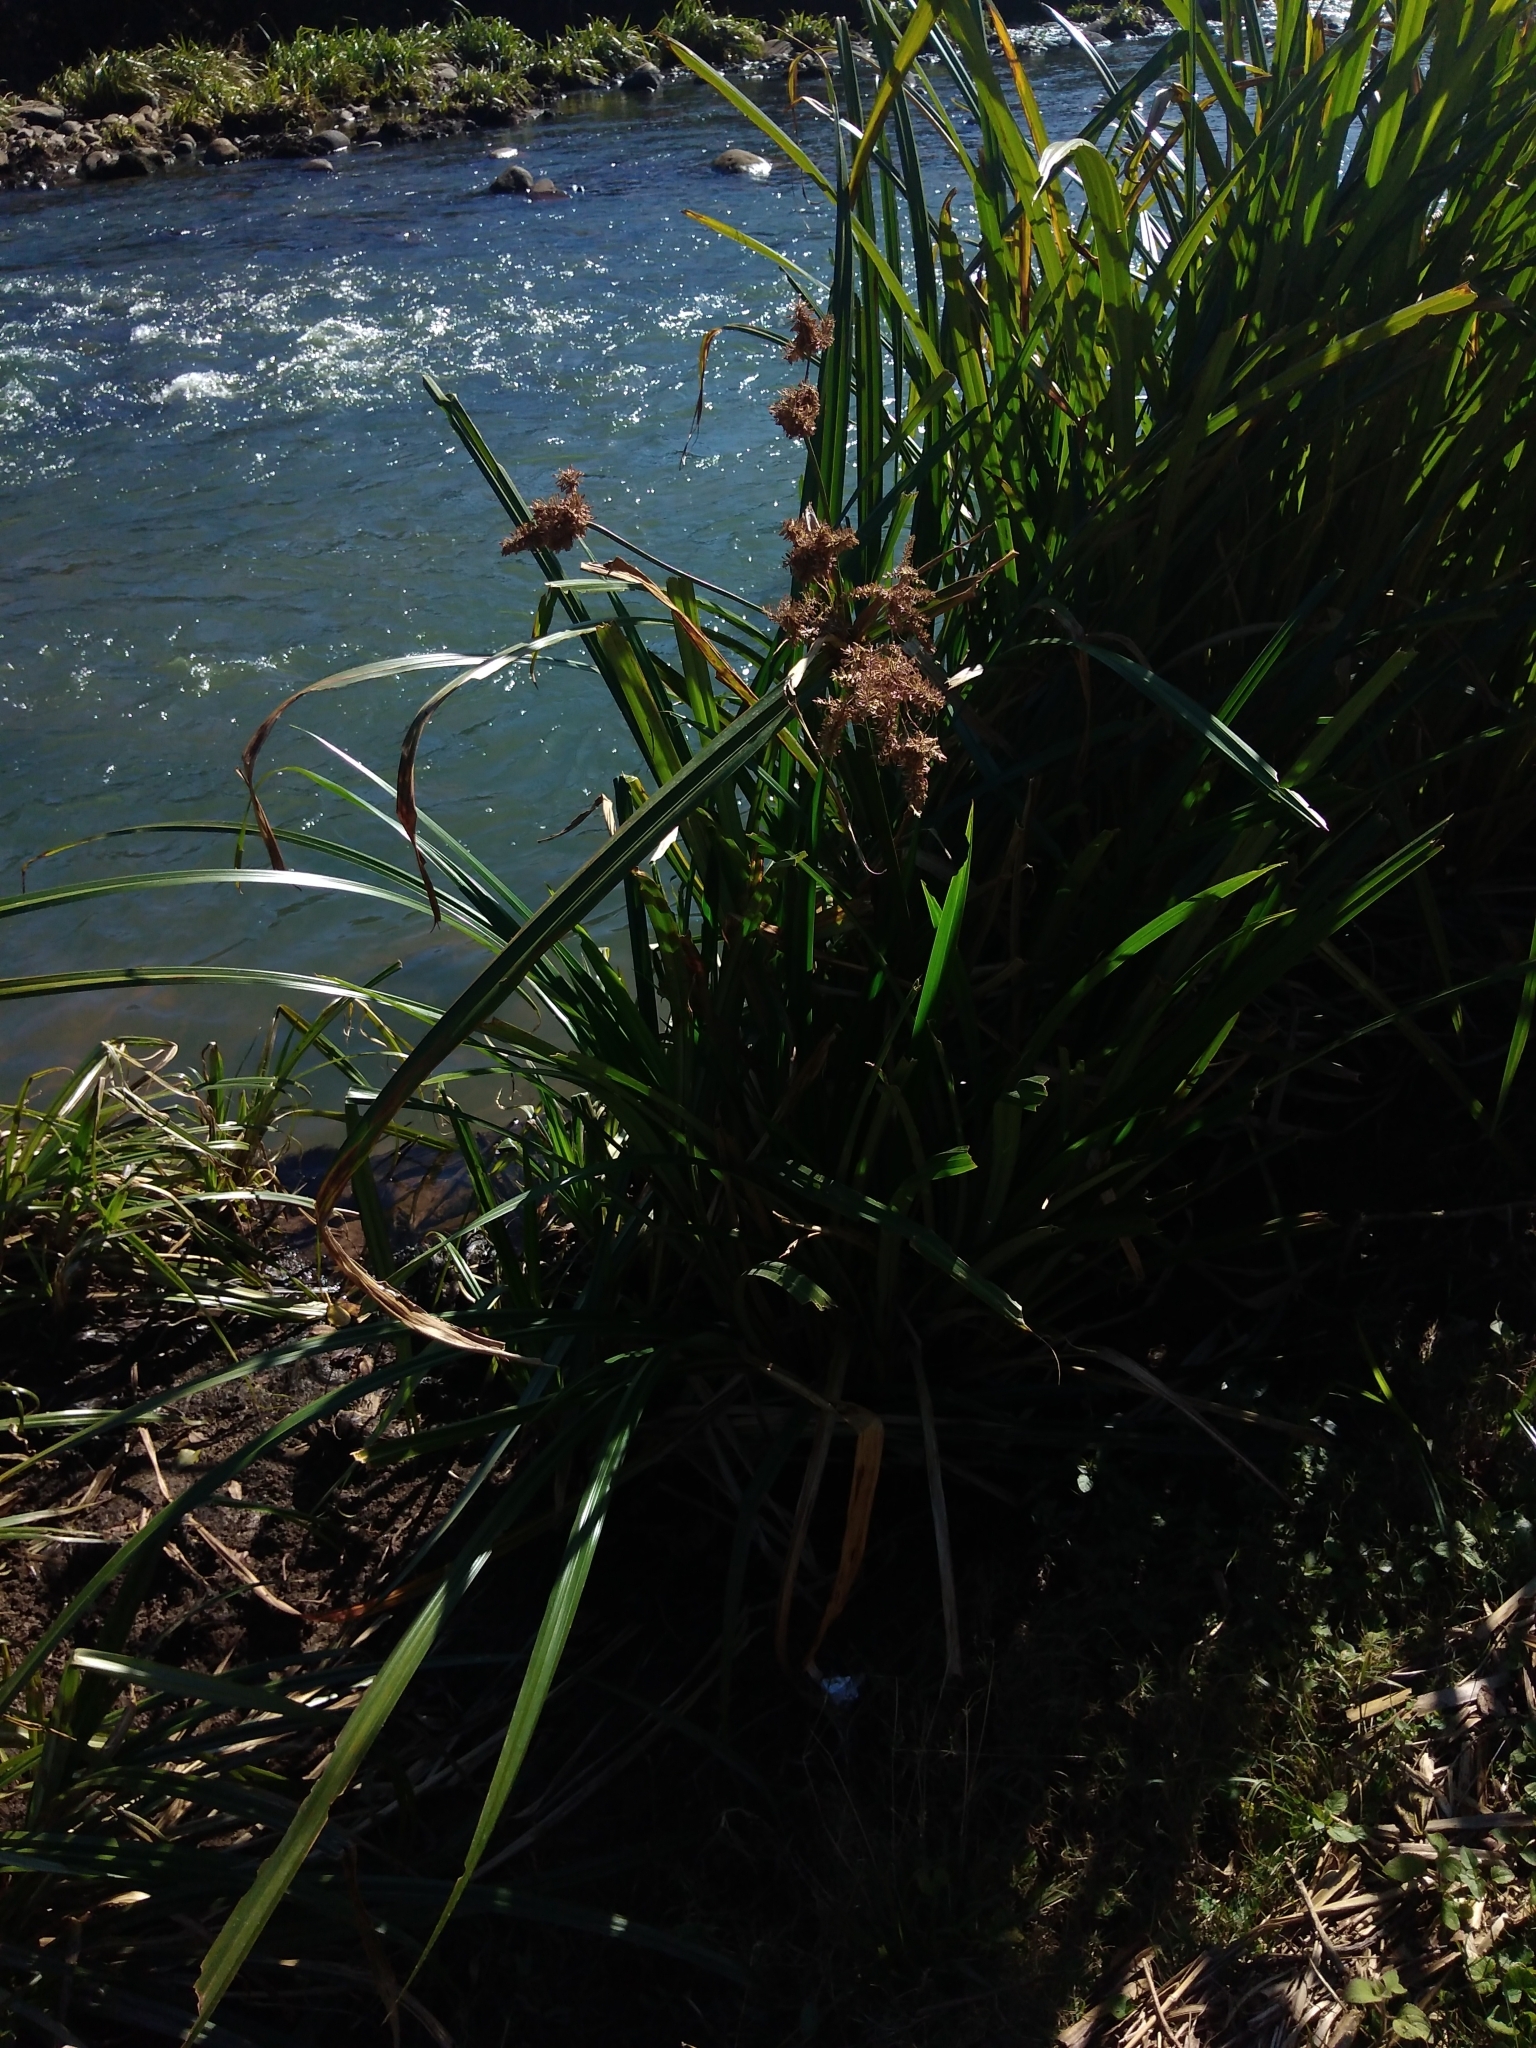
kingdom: Plantae
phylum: Tracheophyta
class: Liliopsida
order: Poales
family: Cyperaceae
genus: Cyperus
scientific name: Cyperus dives
